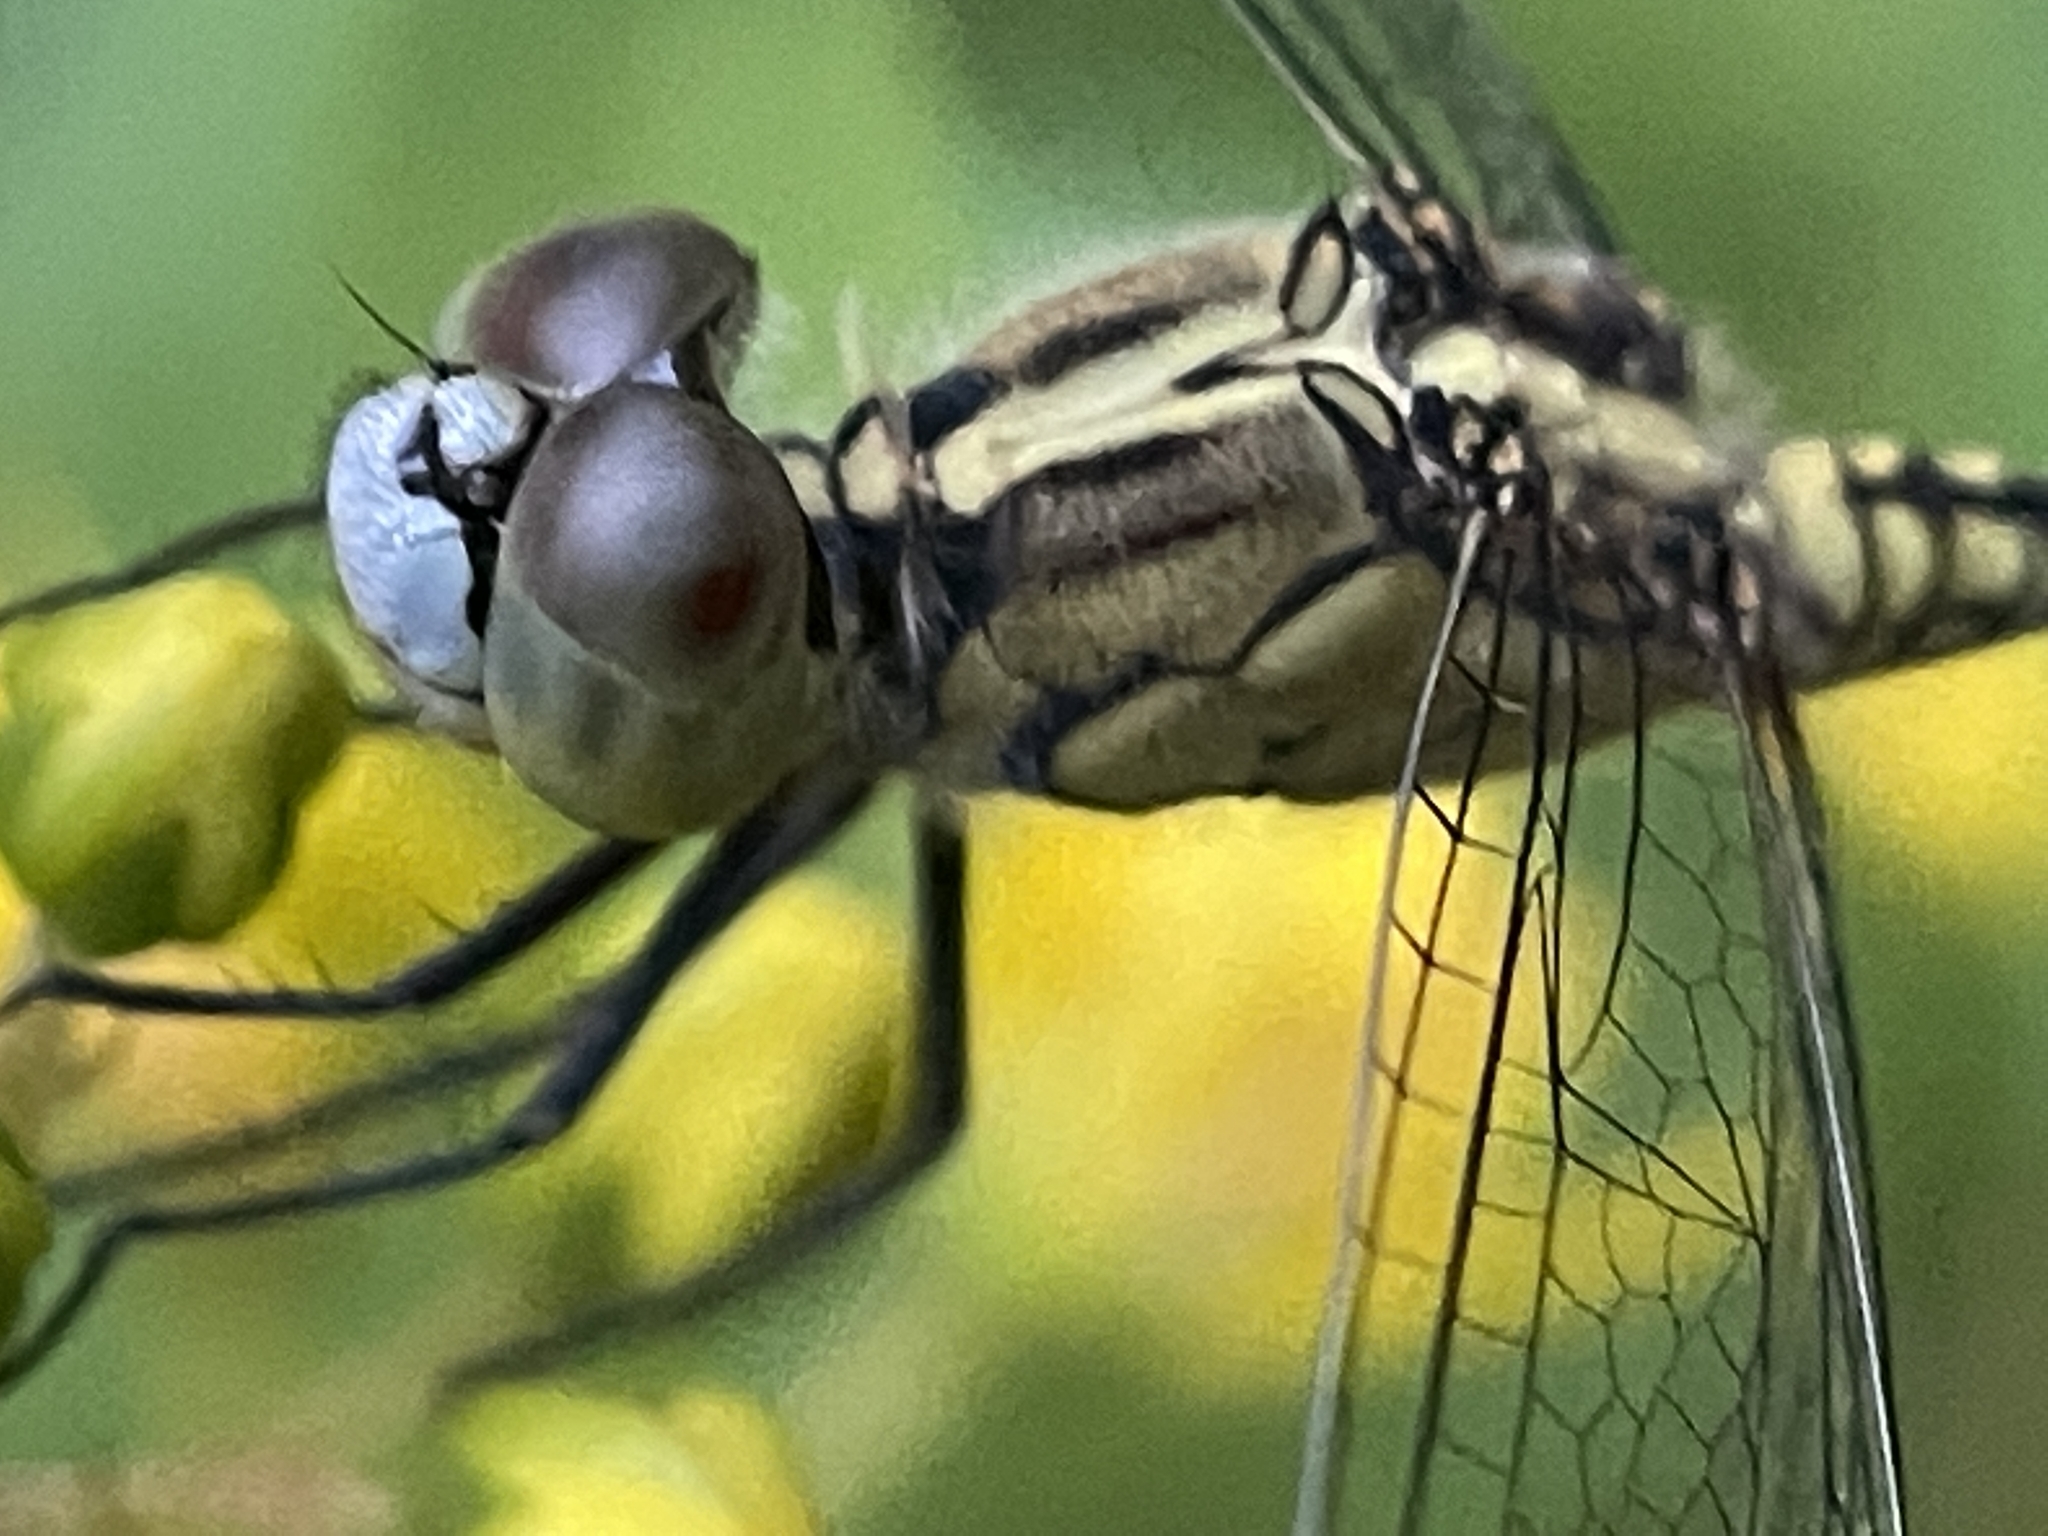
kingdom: Animalia
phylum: Arthropoda
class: Insecta
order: Odonata
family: Libellulidae
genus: Diplacodes
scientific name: Diplacodes trivialis
